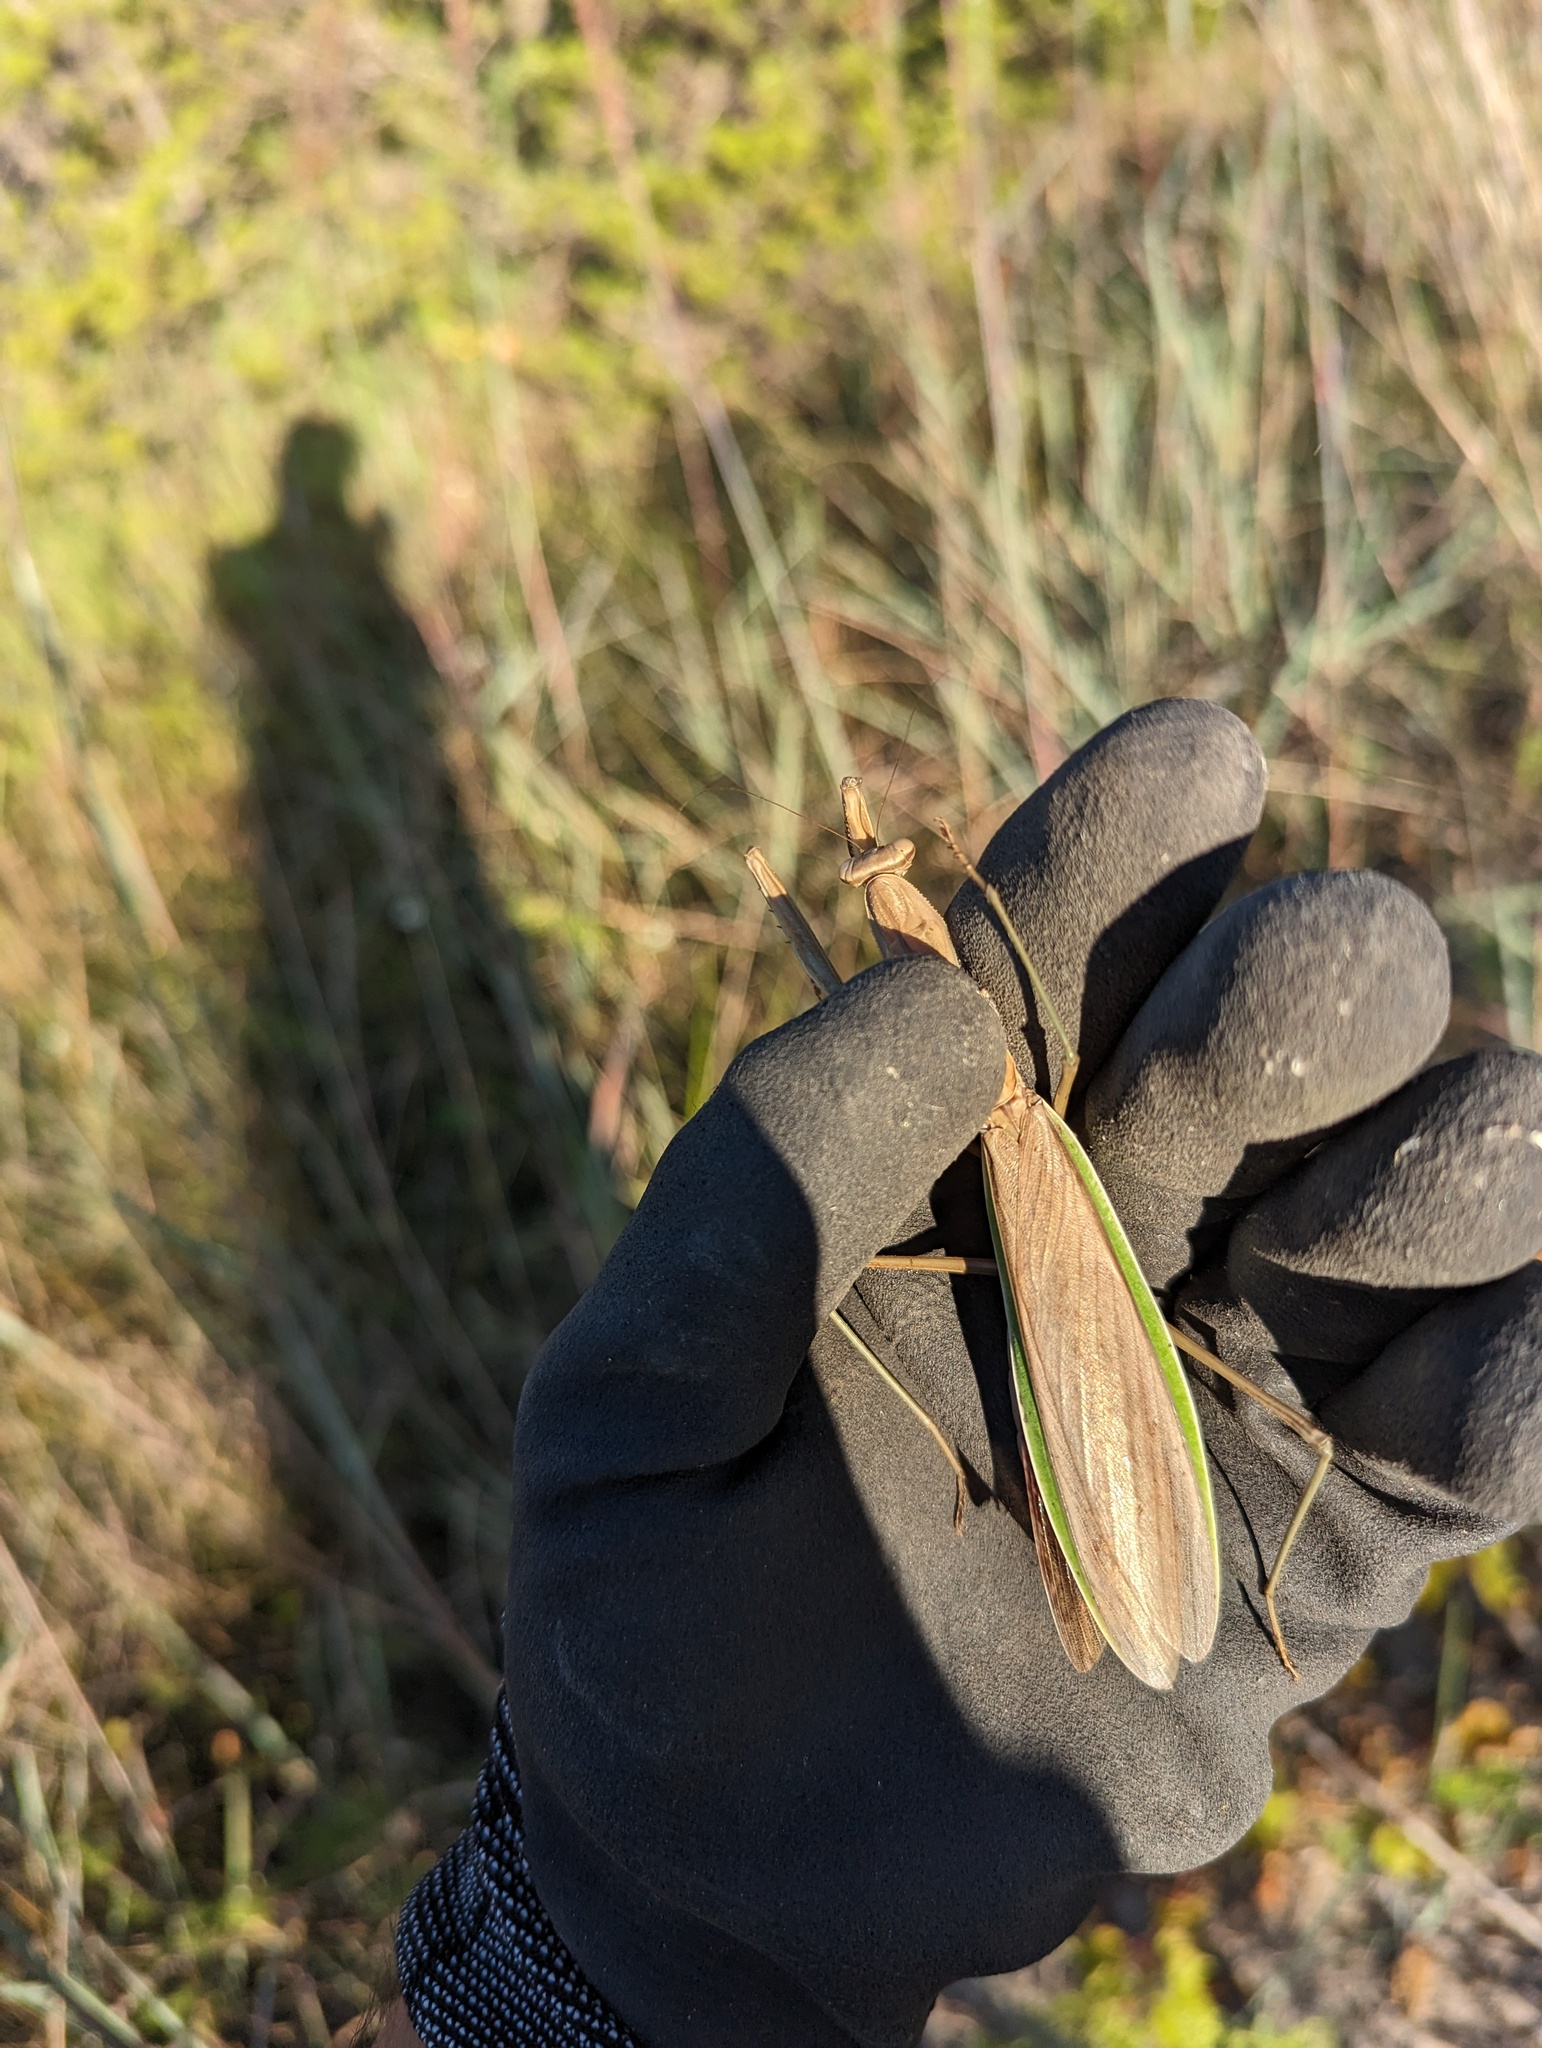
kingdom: Animalia
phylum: Arthropoda
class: Insecta
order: Mantodea
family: Mantidae
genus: Tenodera
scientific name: Tenodera sinensis
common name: Chinese mantis
